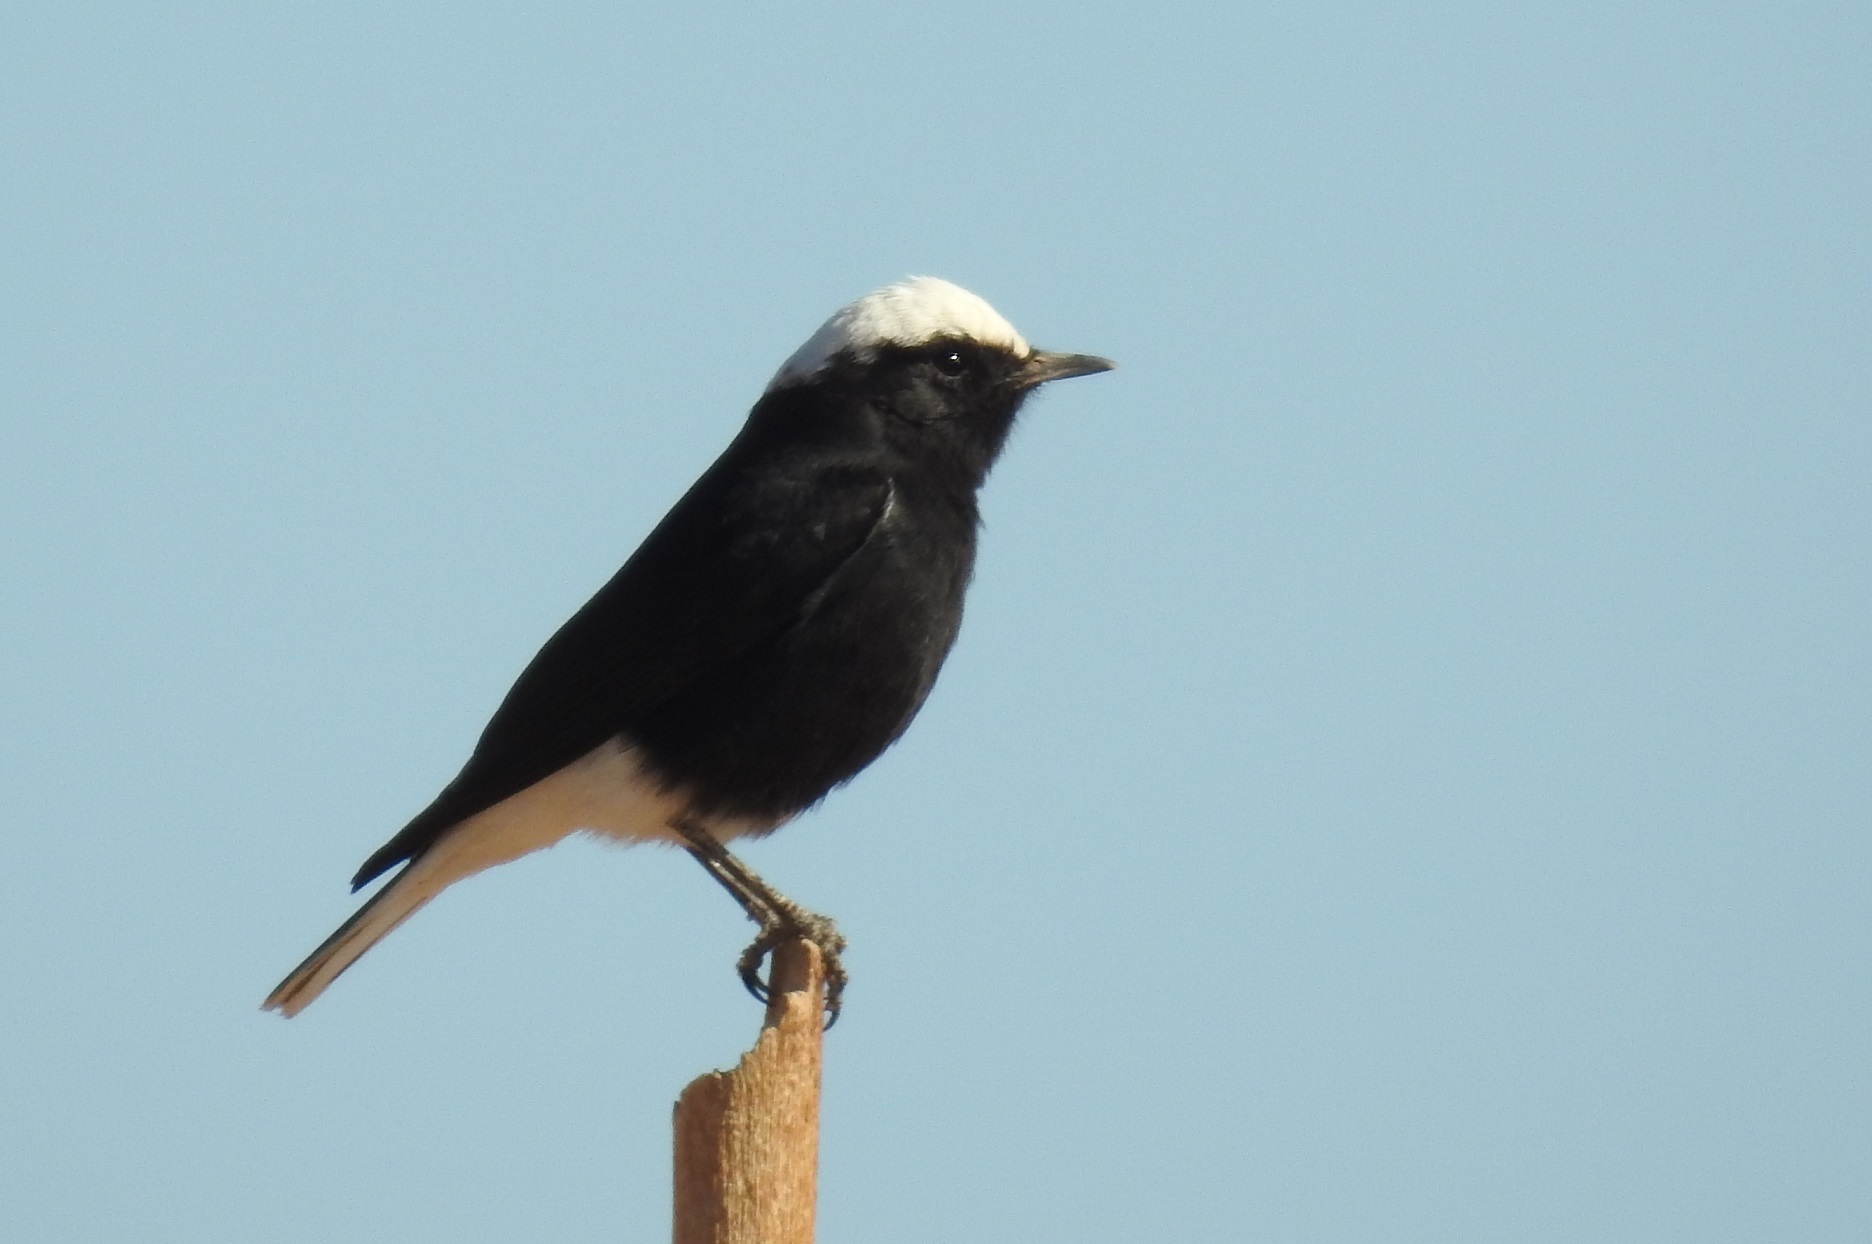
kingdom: Animalia
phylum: Chordata
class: Aves
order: Passeriformes
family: Muscicapidae
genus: Oenanthe
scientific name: Oenanthe leucopyga
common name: White-crowned wheatear
